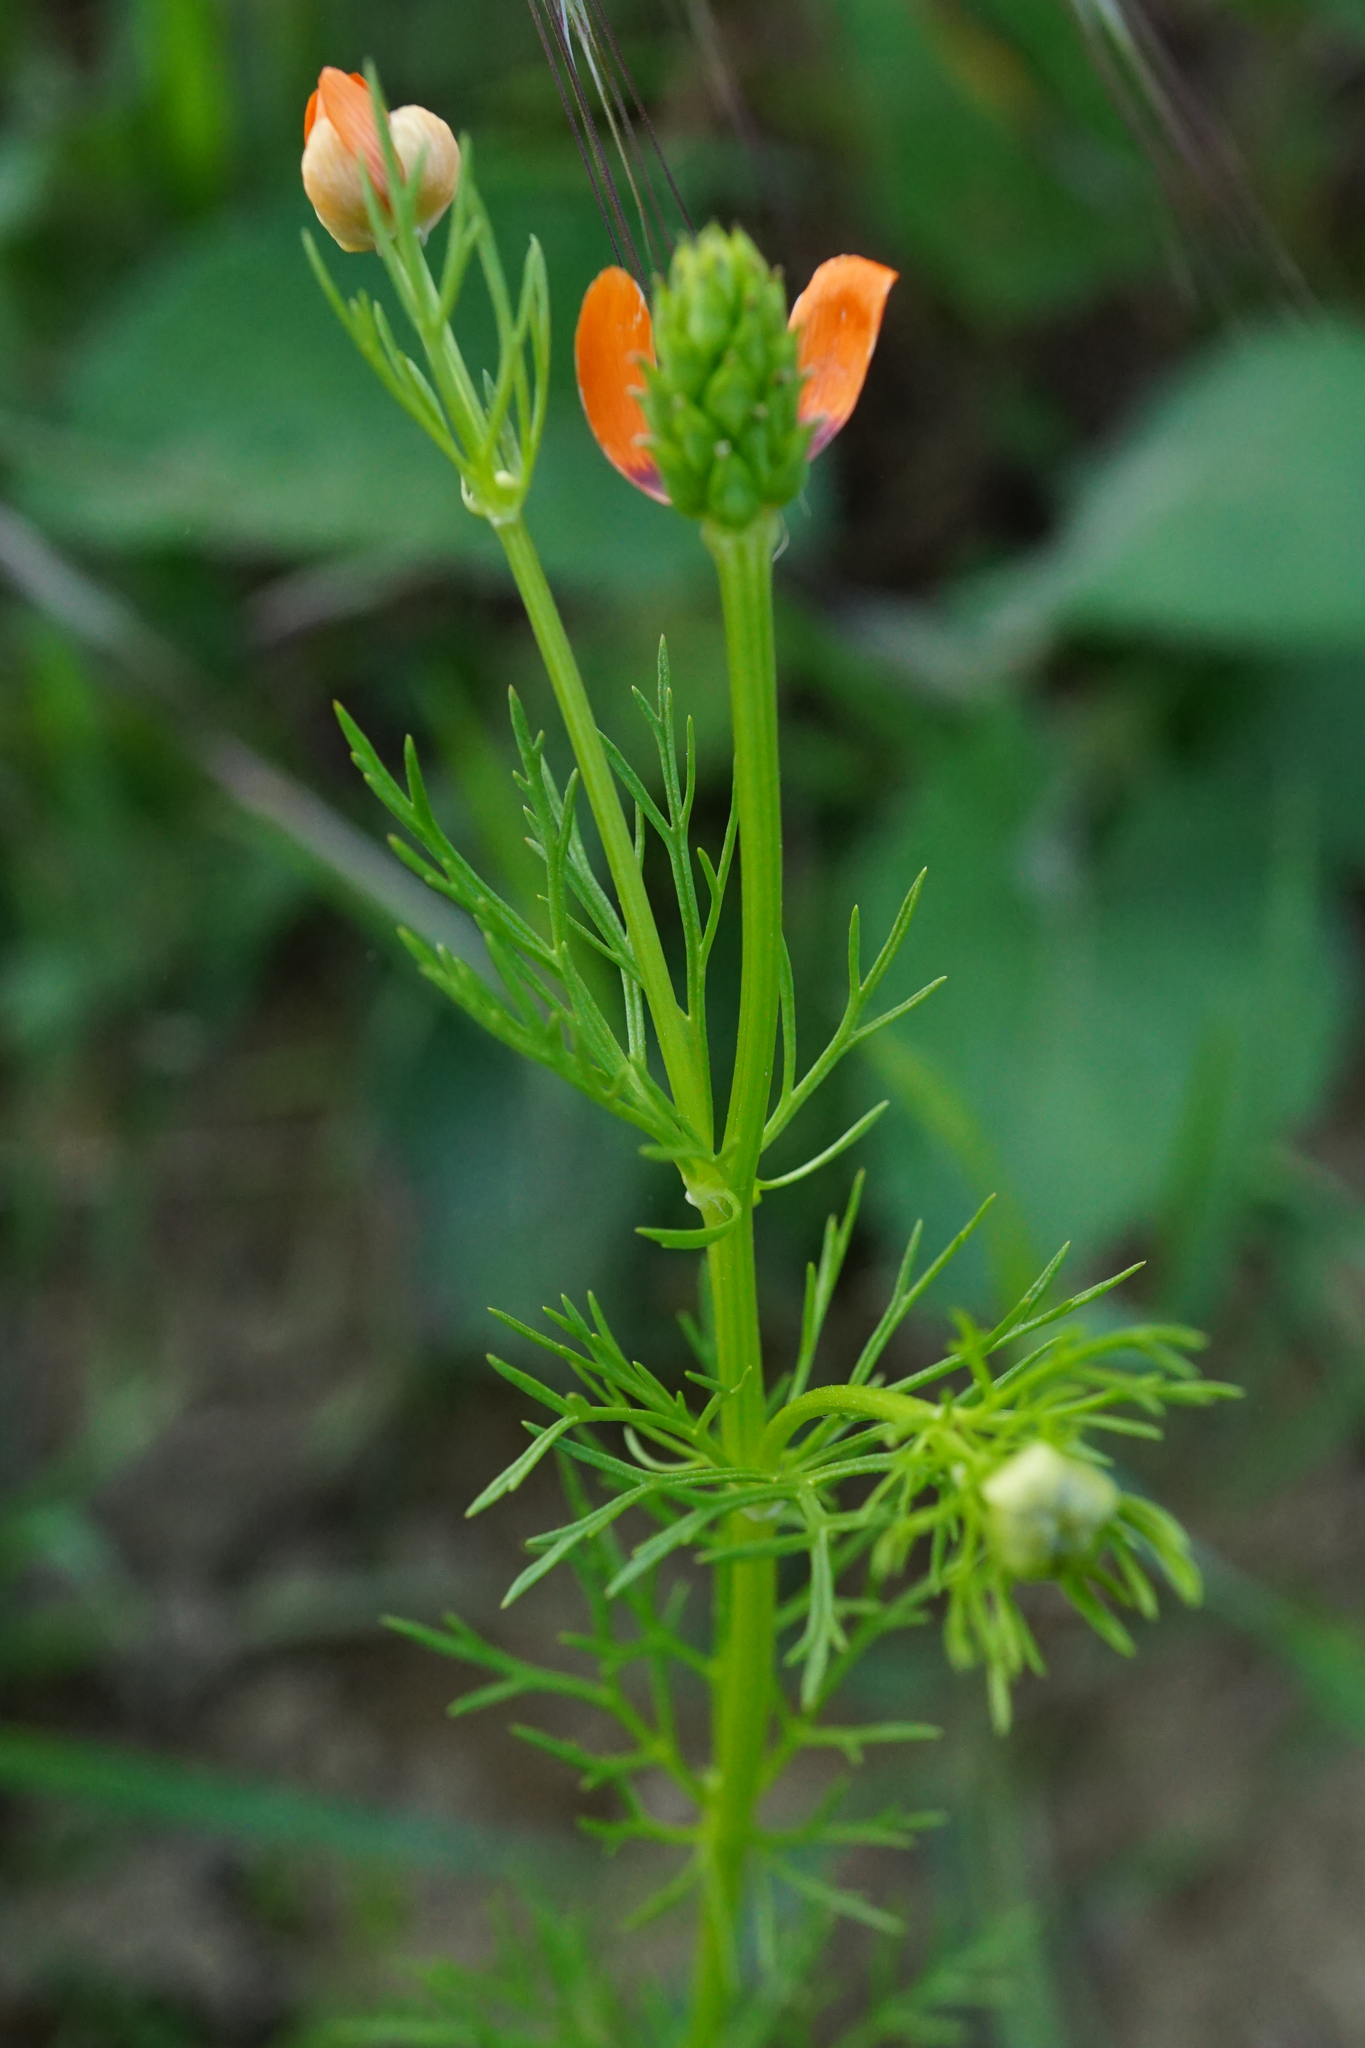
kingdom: Plantae
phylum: Tracheophyta
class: Magnoliopsida
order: Ranunculales
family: Ranunculaceae
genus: Adonis
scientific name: Adonis aestivalis
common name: Summer pheasant's-eye
